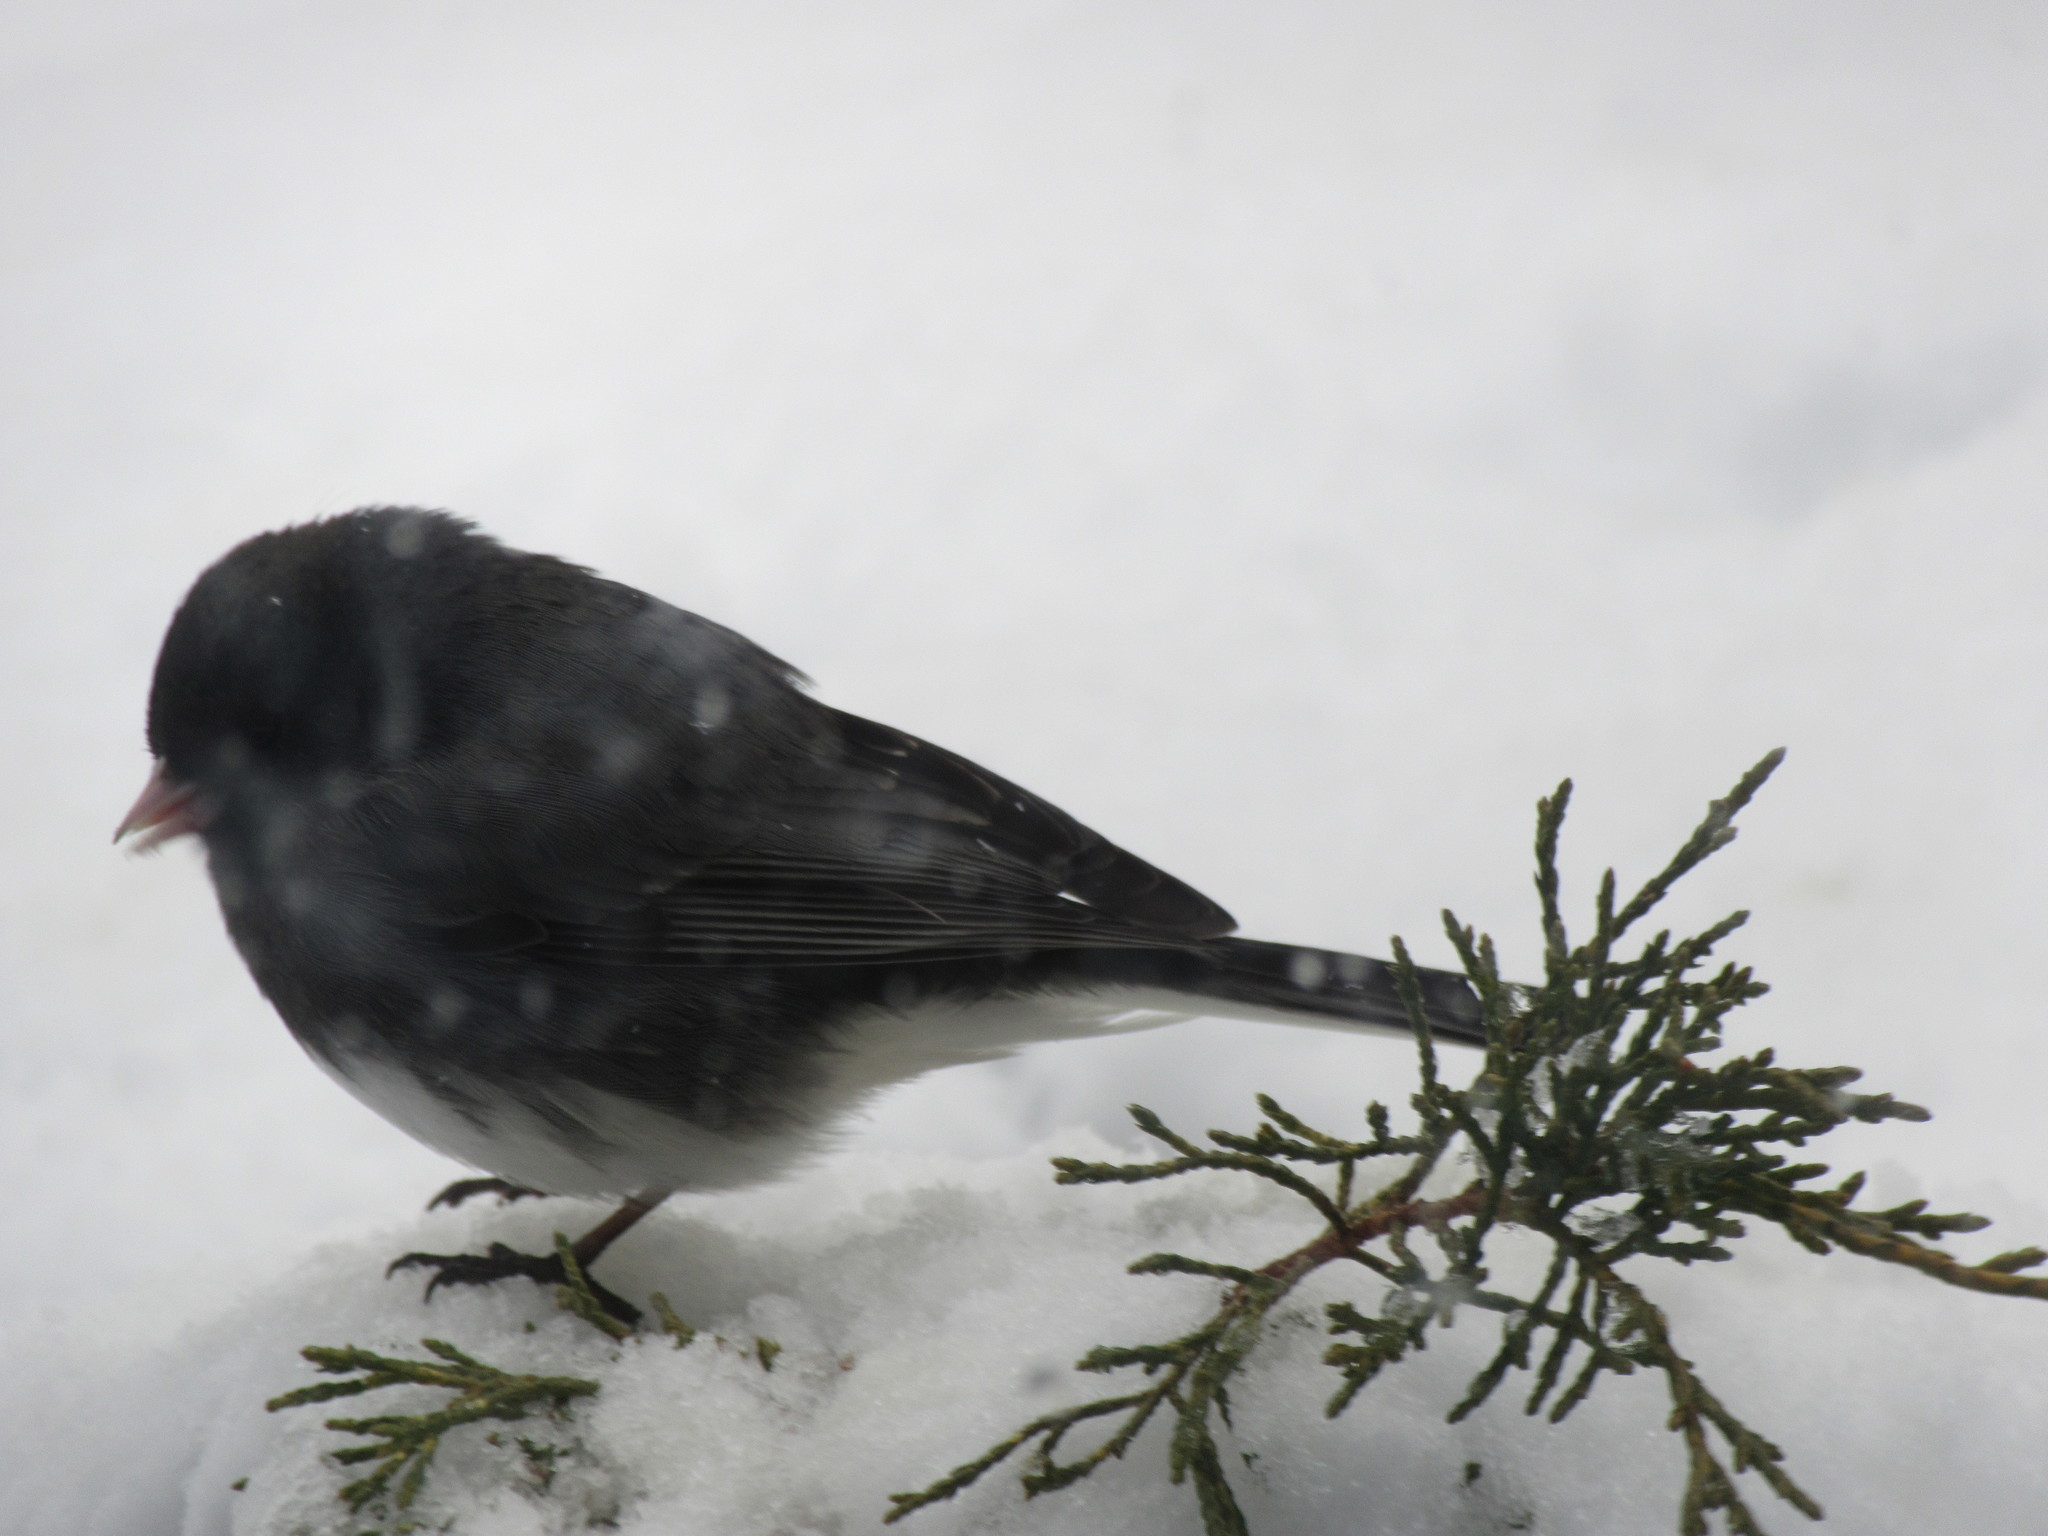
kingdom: Animalia
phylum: Chordata
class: Aves
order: Passeriformes
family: Passerellidae
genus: Junco
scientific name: Junco hyemalis
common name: Dark-eyed junco
